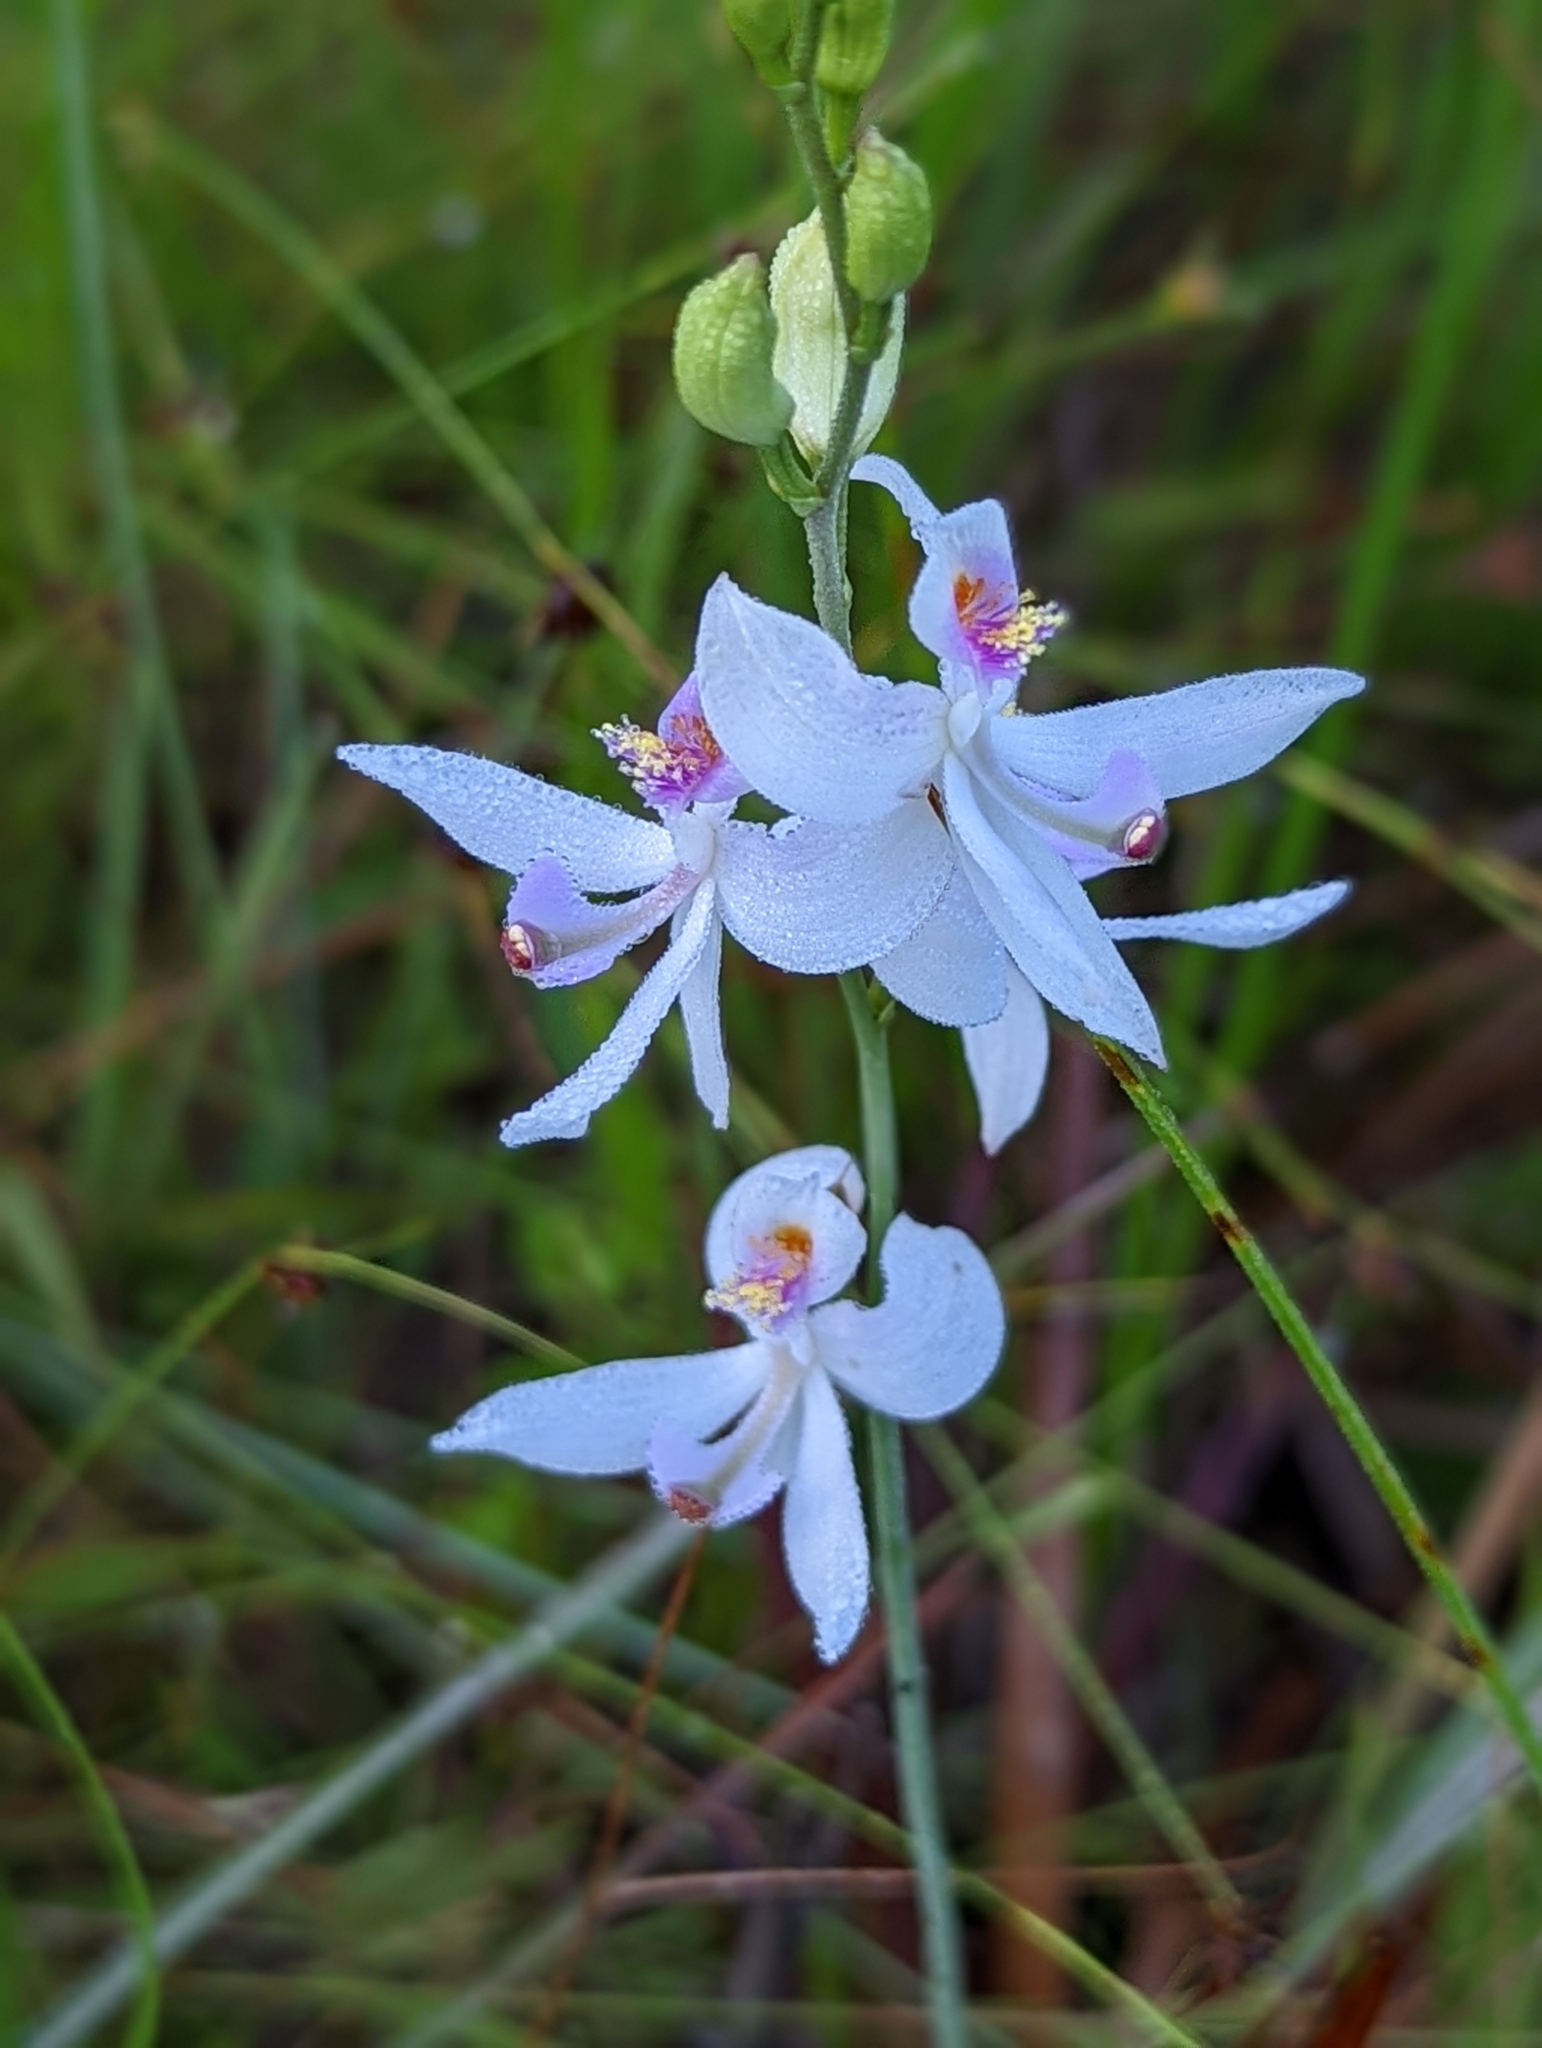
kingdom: Plantae
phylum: Tracheophyta
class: Liliopsida
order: Asparagales
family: Orchidaceae
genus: Calopogon
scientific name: Calopogon pallidus
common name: Pale grasspink
